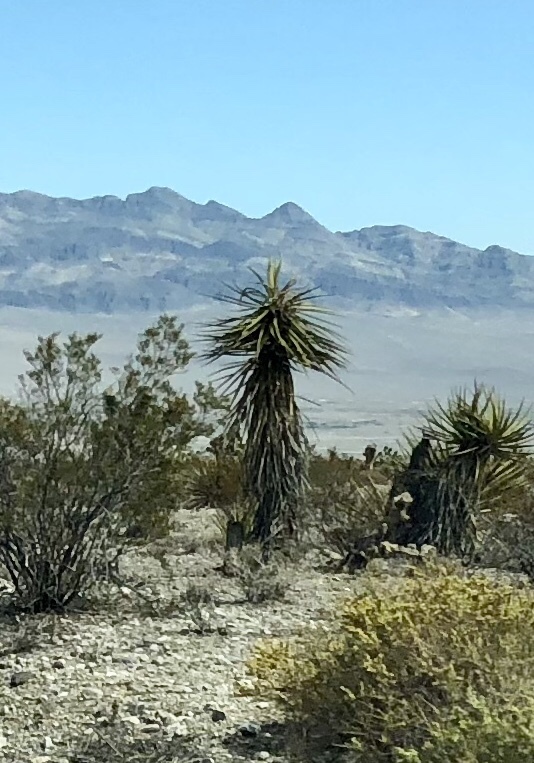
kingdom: Plantae
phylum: Tracheophyta
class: Liliopsida
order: Asparagales
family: Asparagaceae
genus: Yucca
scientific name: Yucca schidigera
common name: Mojave yucca
